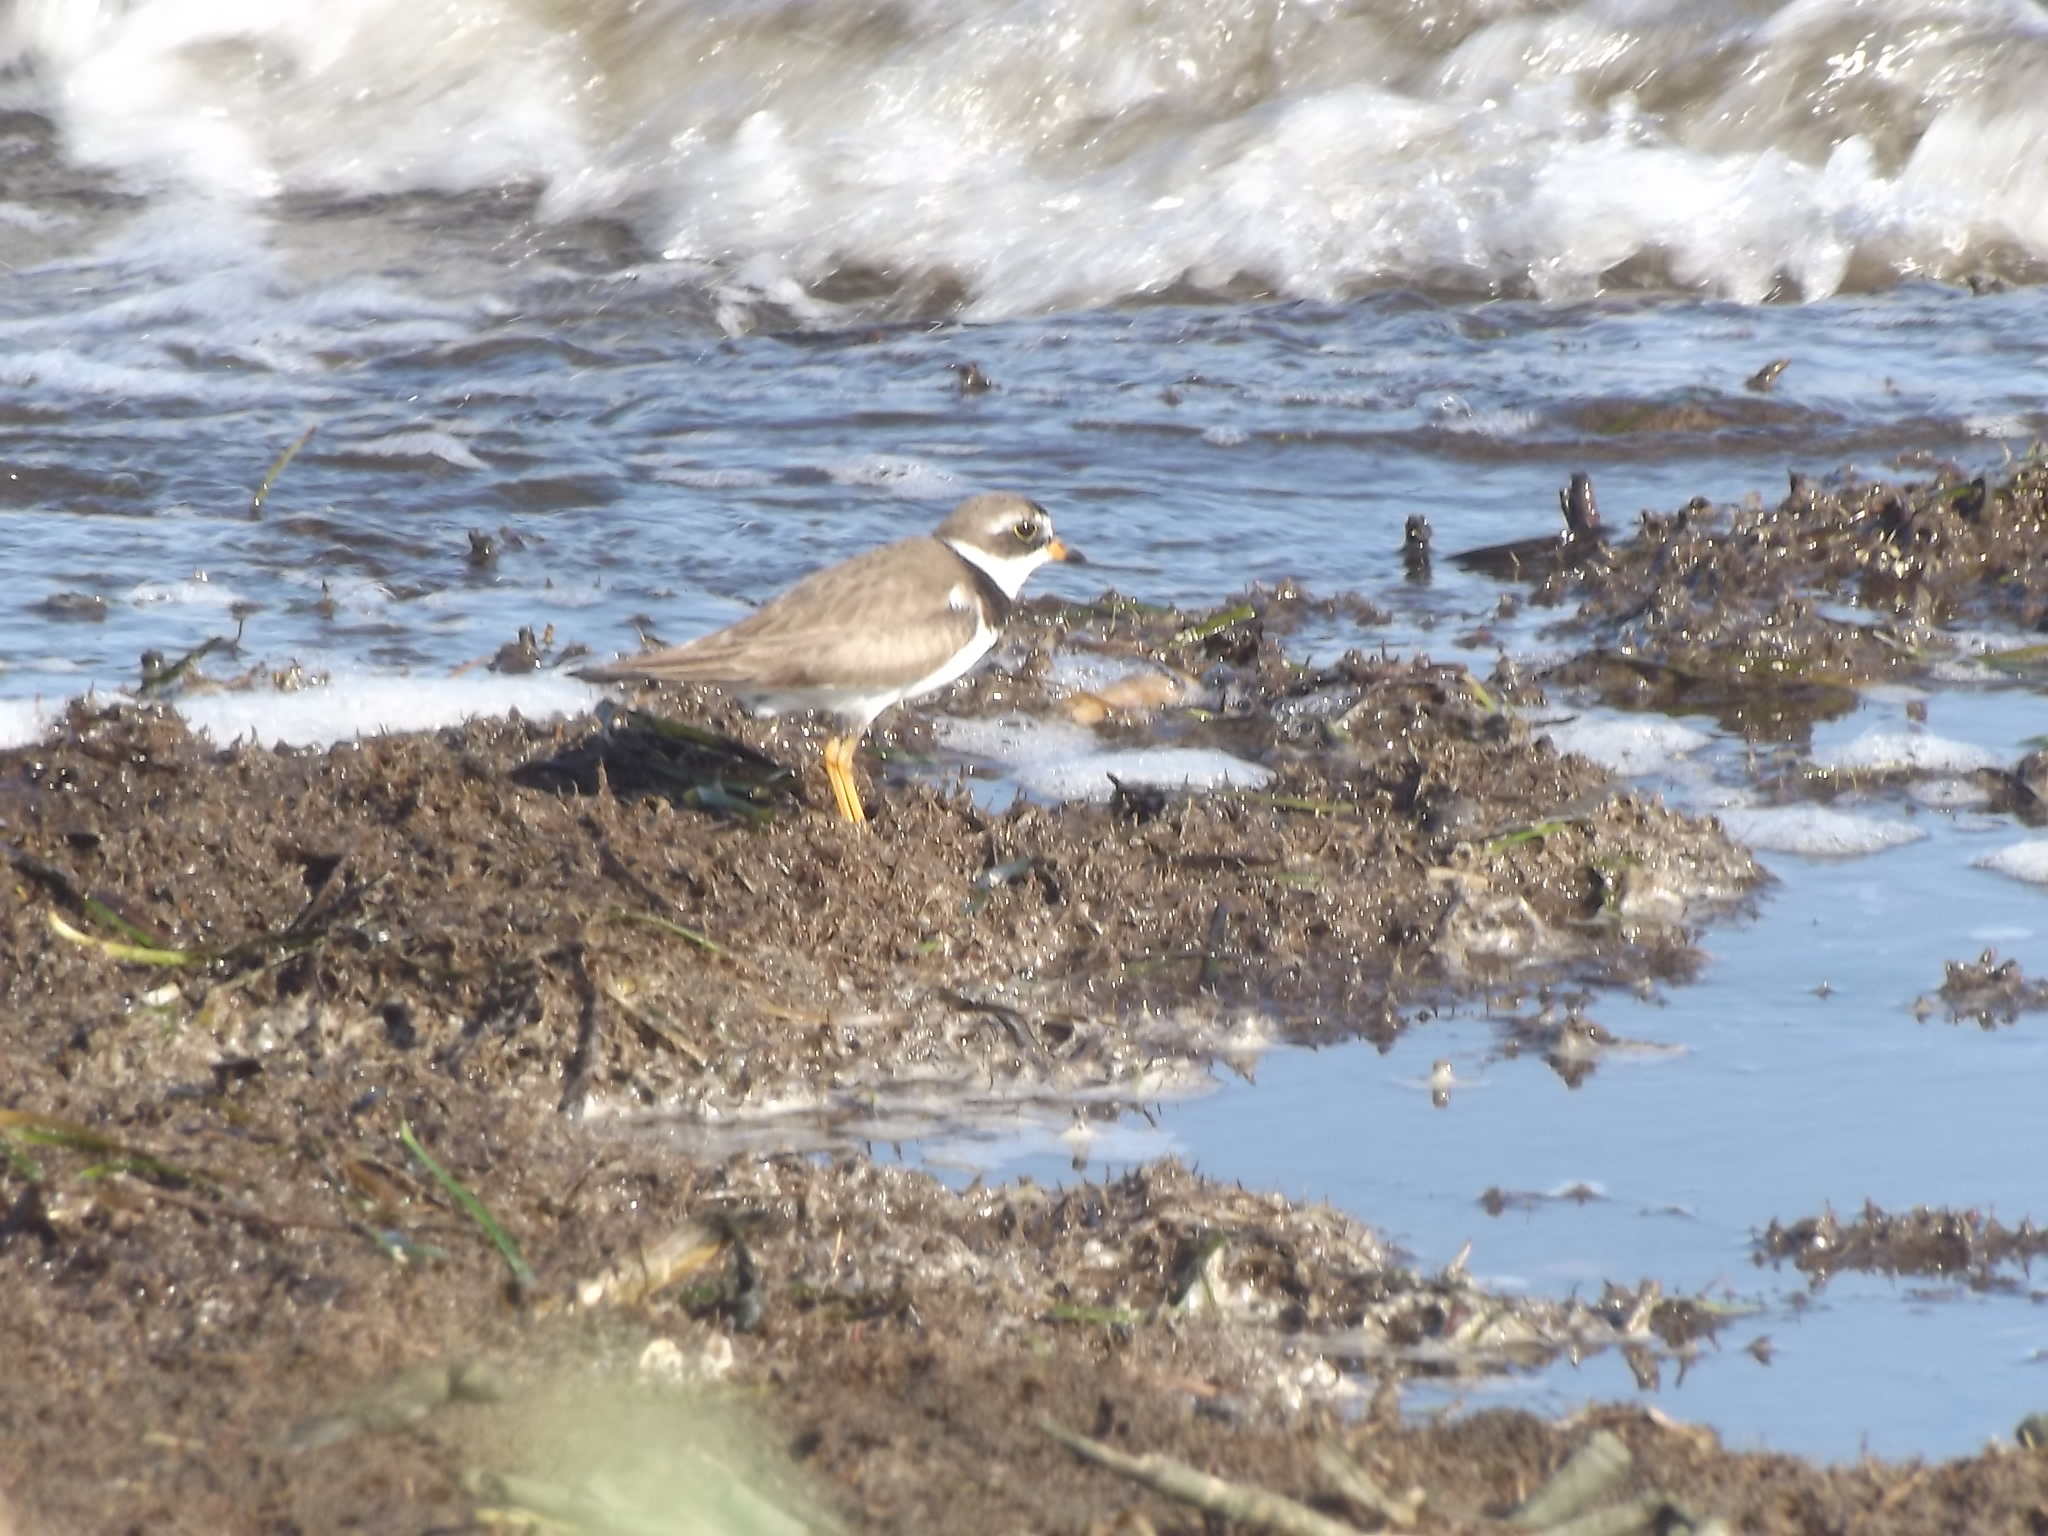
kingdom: Animalia
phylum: Chordata
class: Aves
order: Charadriiformes
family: Charadriidae
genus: Charadrius
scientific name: Charadrius semipalmatus
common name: Semipalmated plover
